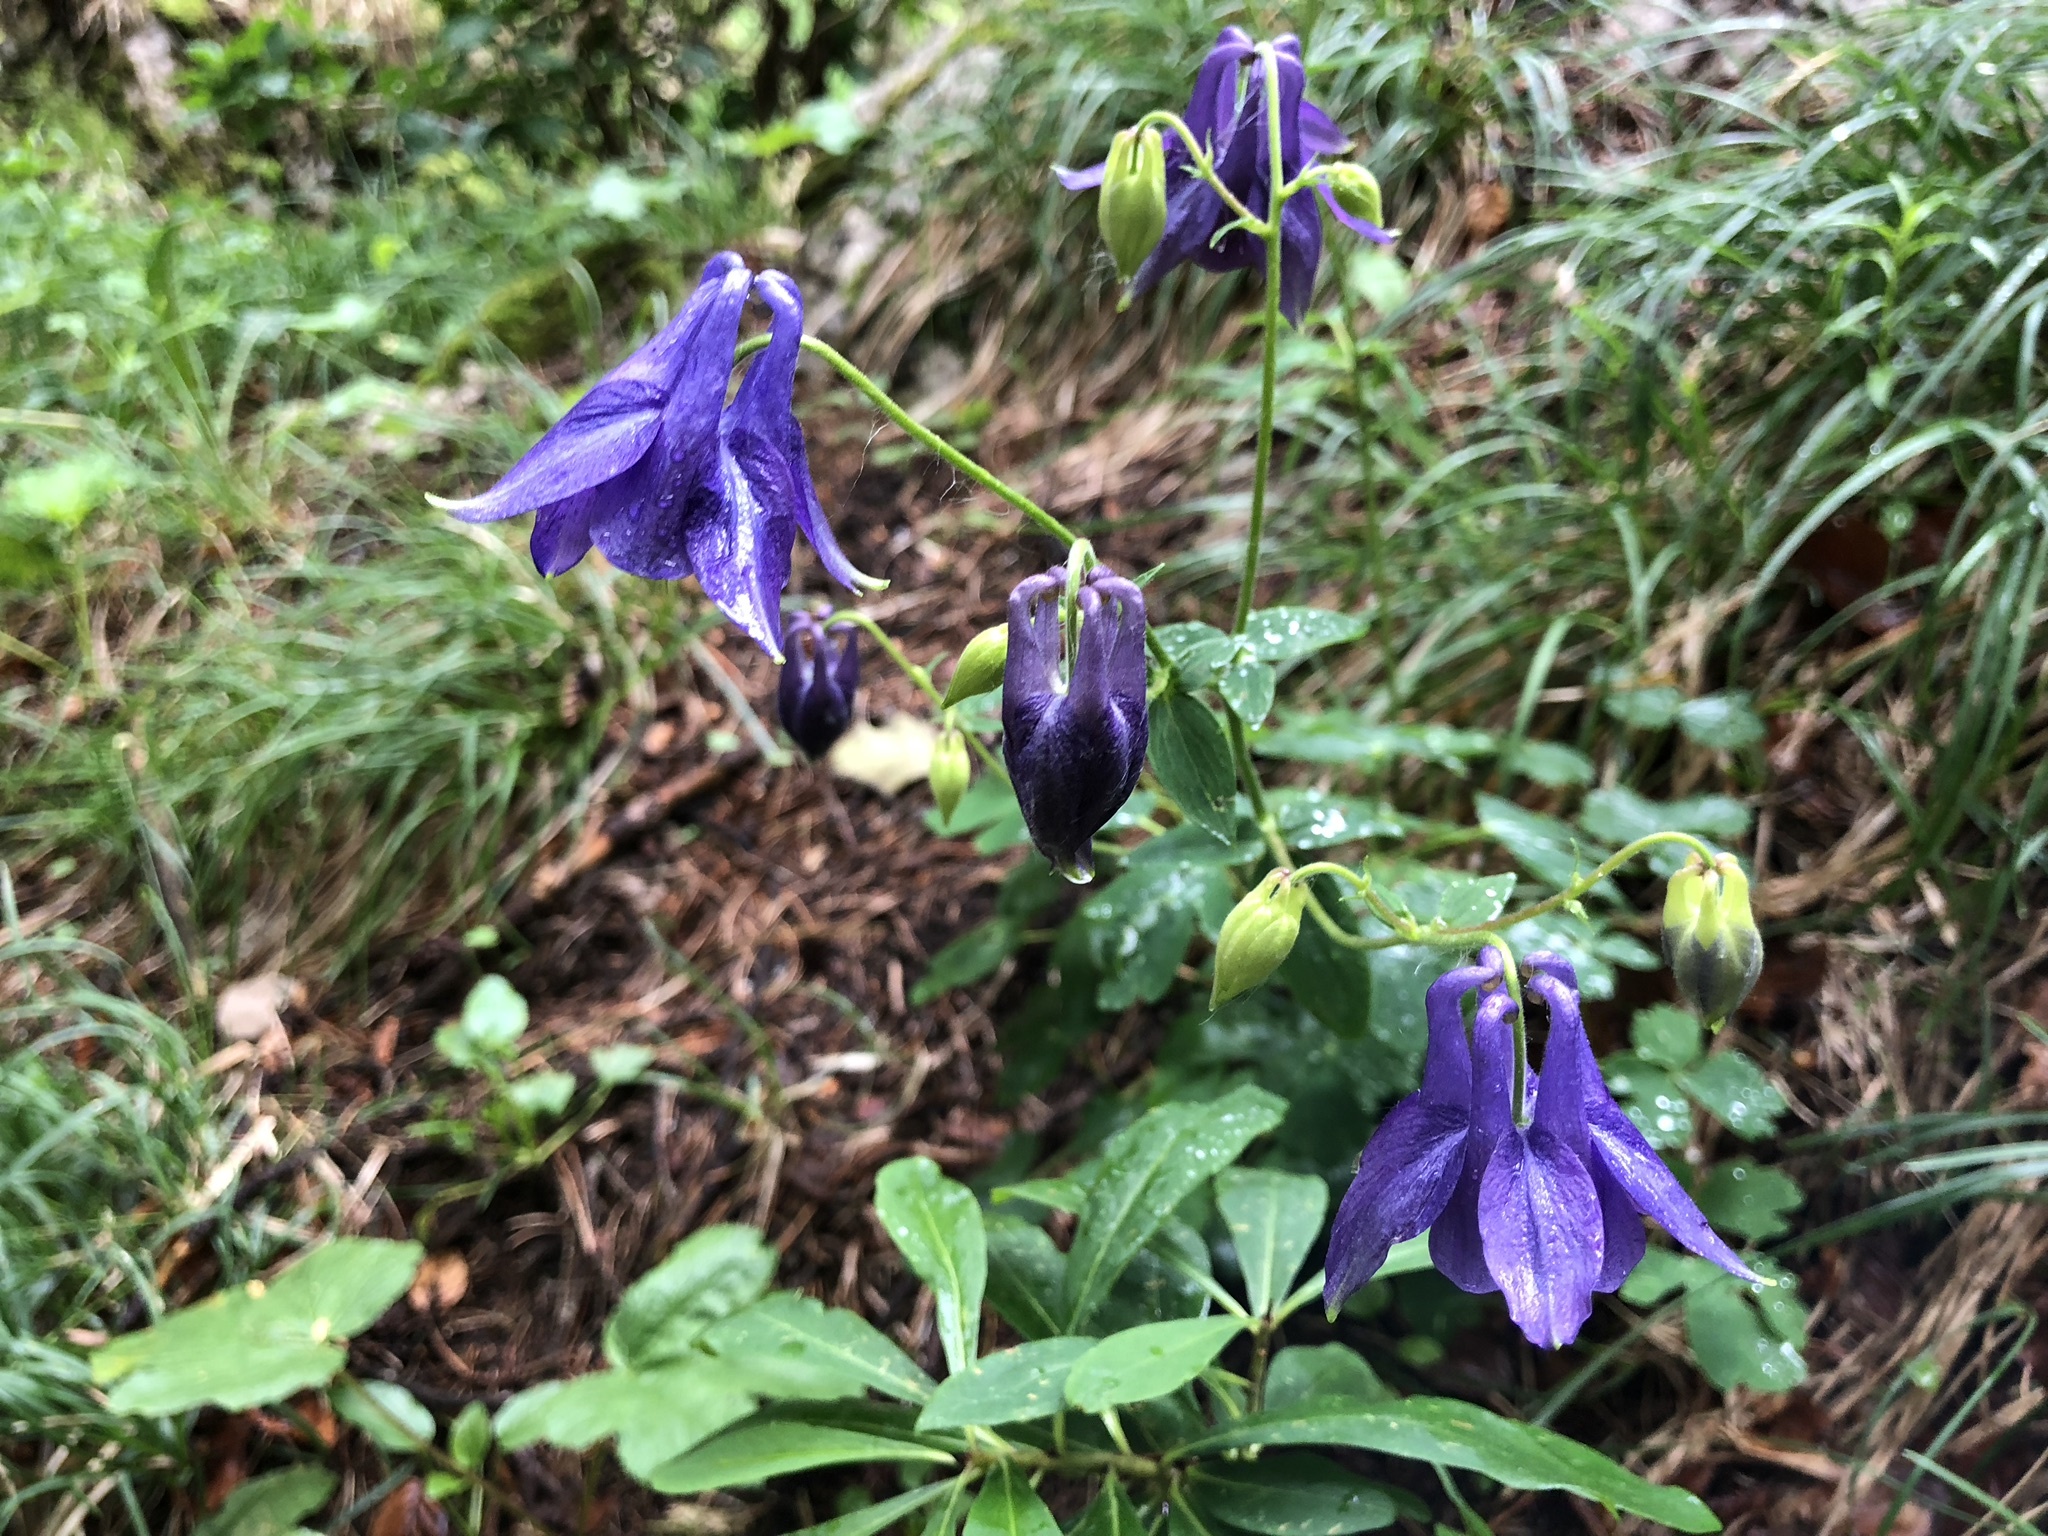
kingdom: Plantae
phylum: Tracheophyta
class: Magnoliopsida
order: Ranunculales
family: Ranunculaceae
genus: Aquilegia
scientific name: Aquilegia vulgaris
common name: Columbine
